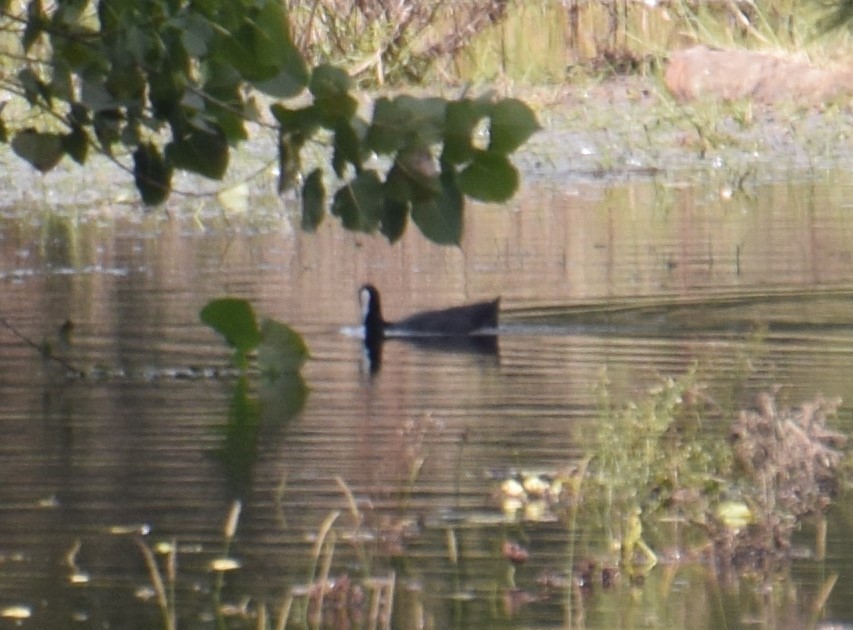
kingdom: Animalia
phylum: Chordata
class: Aves
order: Gruiformes
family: Rallidae
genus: Fulica
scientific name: Fulica atra
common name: Eurasian coot
